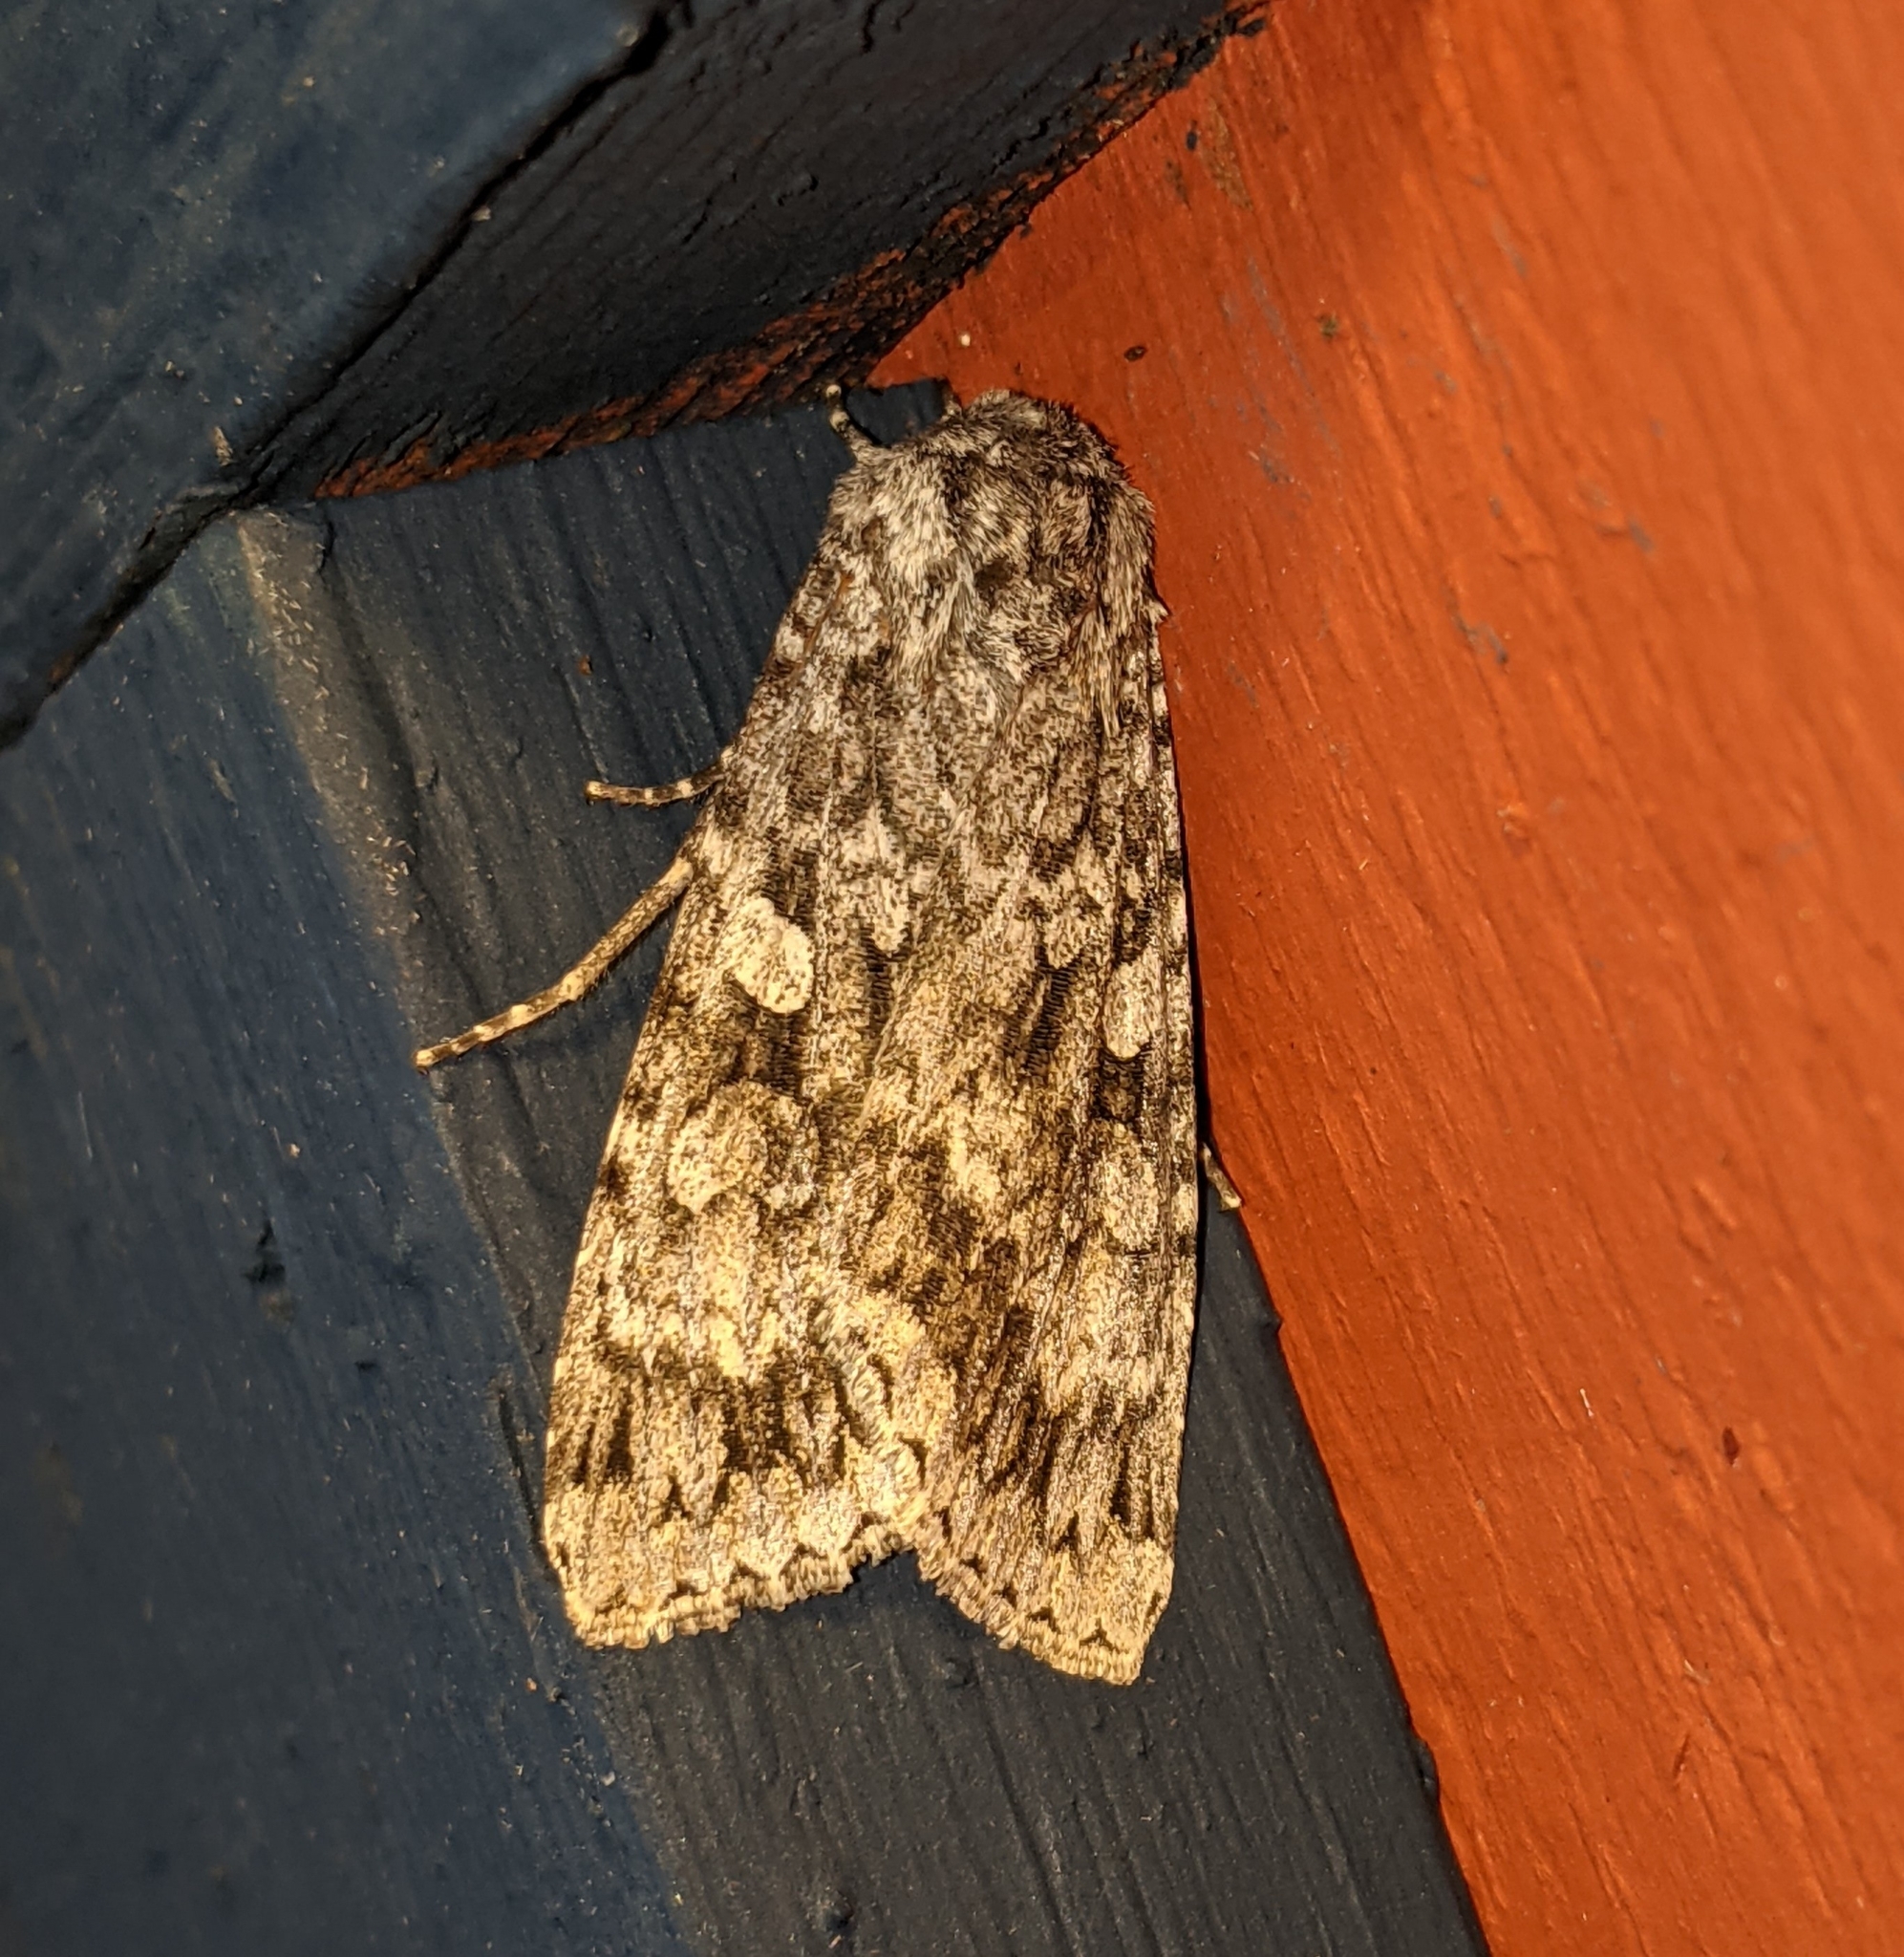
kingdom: Animalia
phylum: Arthropoda
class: Insecta
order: Lepidoptera
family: Noctuidae
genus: Eurois
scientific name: Eurois occulta
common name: Great brocade
